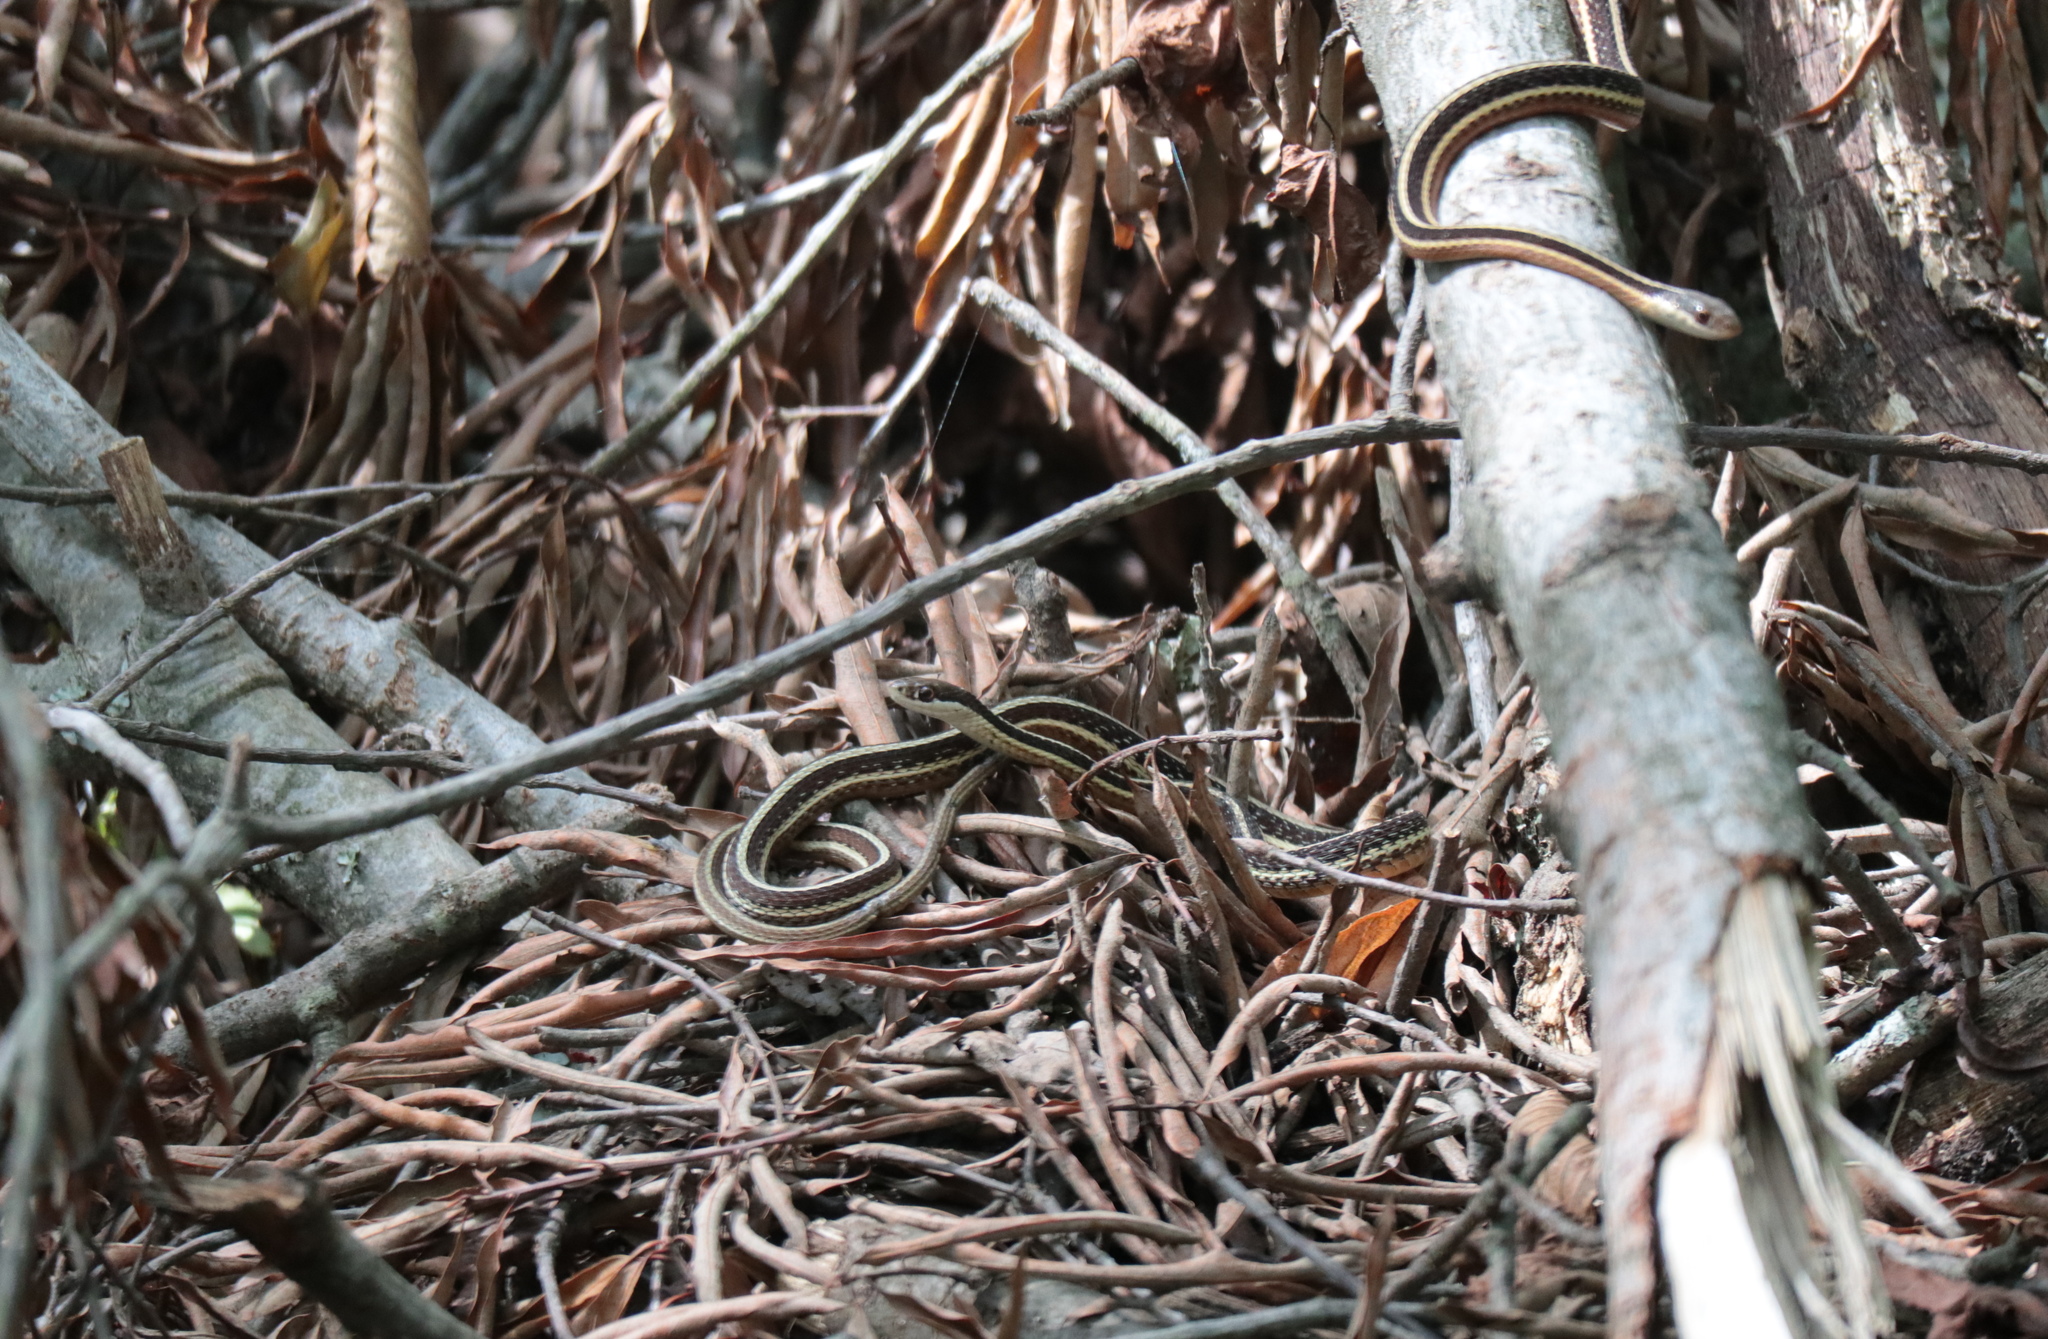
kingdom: Animalia
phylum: Chordata
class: Squamata
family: Colubridae
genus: Thamnophis
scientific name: Thamnophis saurita
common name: Eastern ribbonsnake
